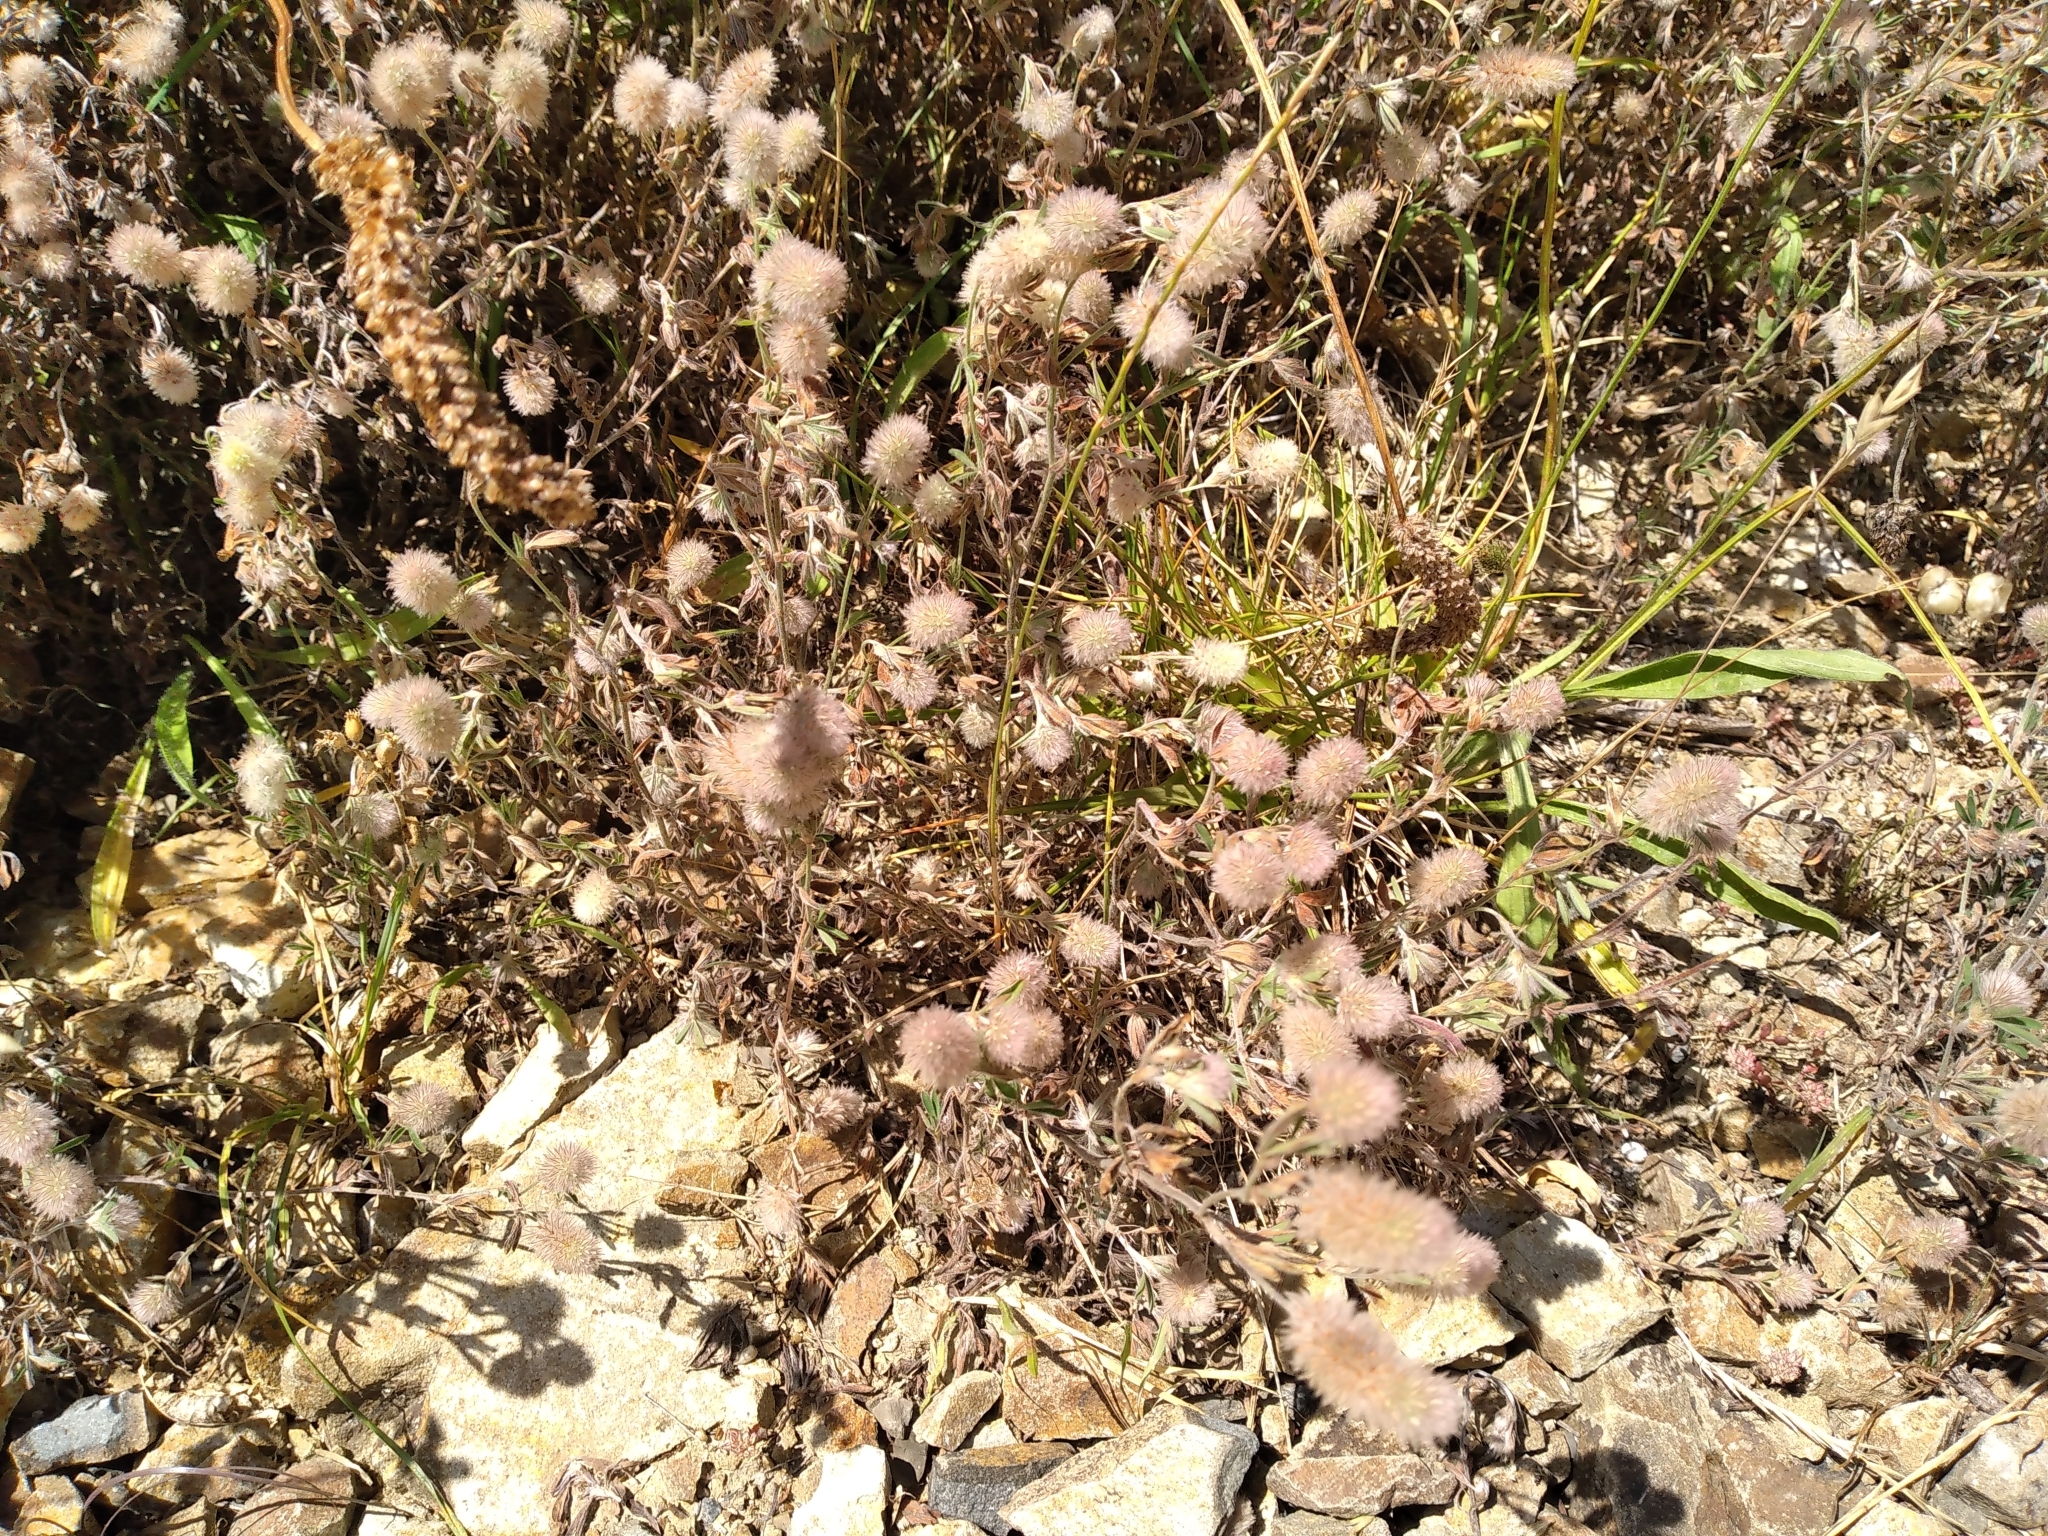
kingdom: Plantae
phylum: Tracheophyta
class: Magnoliopsida
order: Fabales
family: Fabaceae
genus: Trifolium
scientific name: Trifolium arvense
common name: Hare's-foot clover
